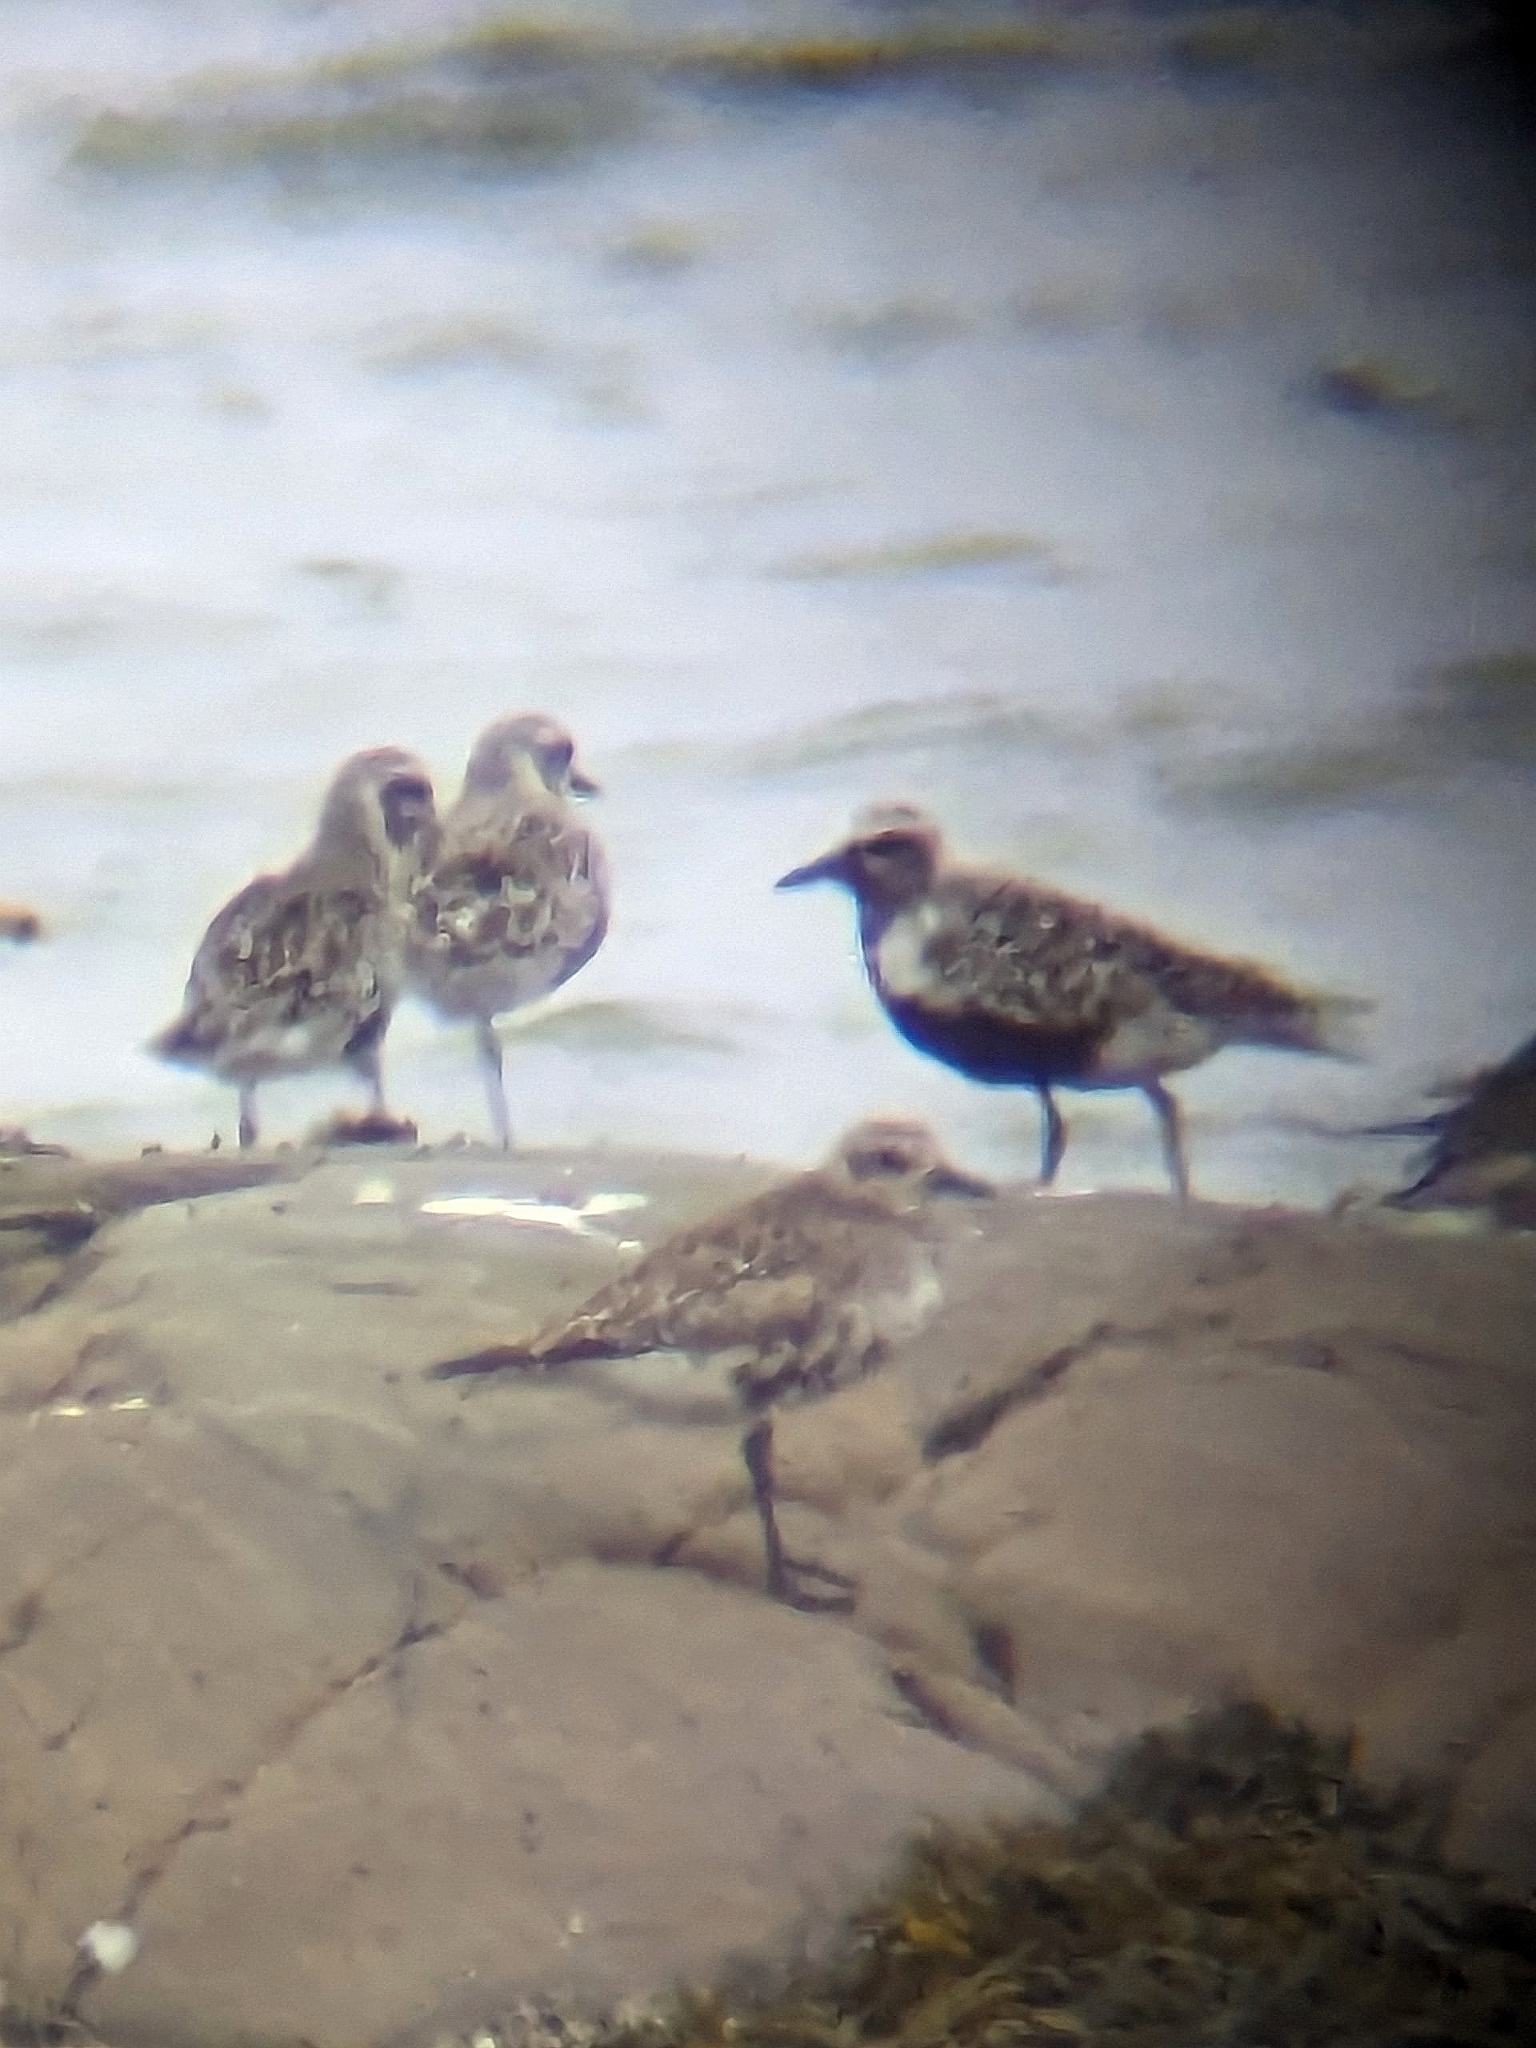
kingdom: Animalia
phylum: Chordata
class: Aves
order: Charadriiformes
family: Charadriidae
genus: Pluvialis
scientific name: Pluvialis squatarola
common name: Grey plover
